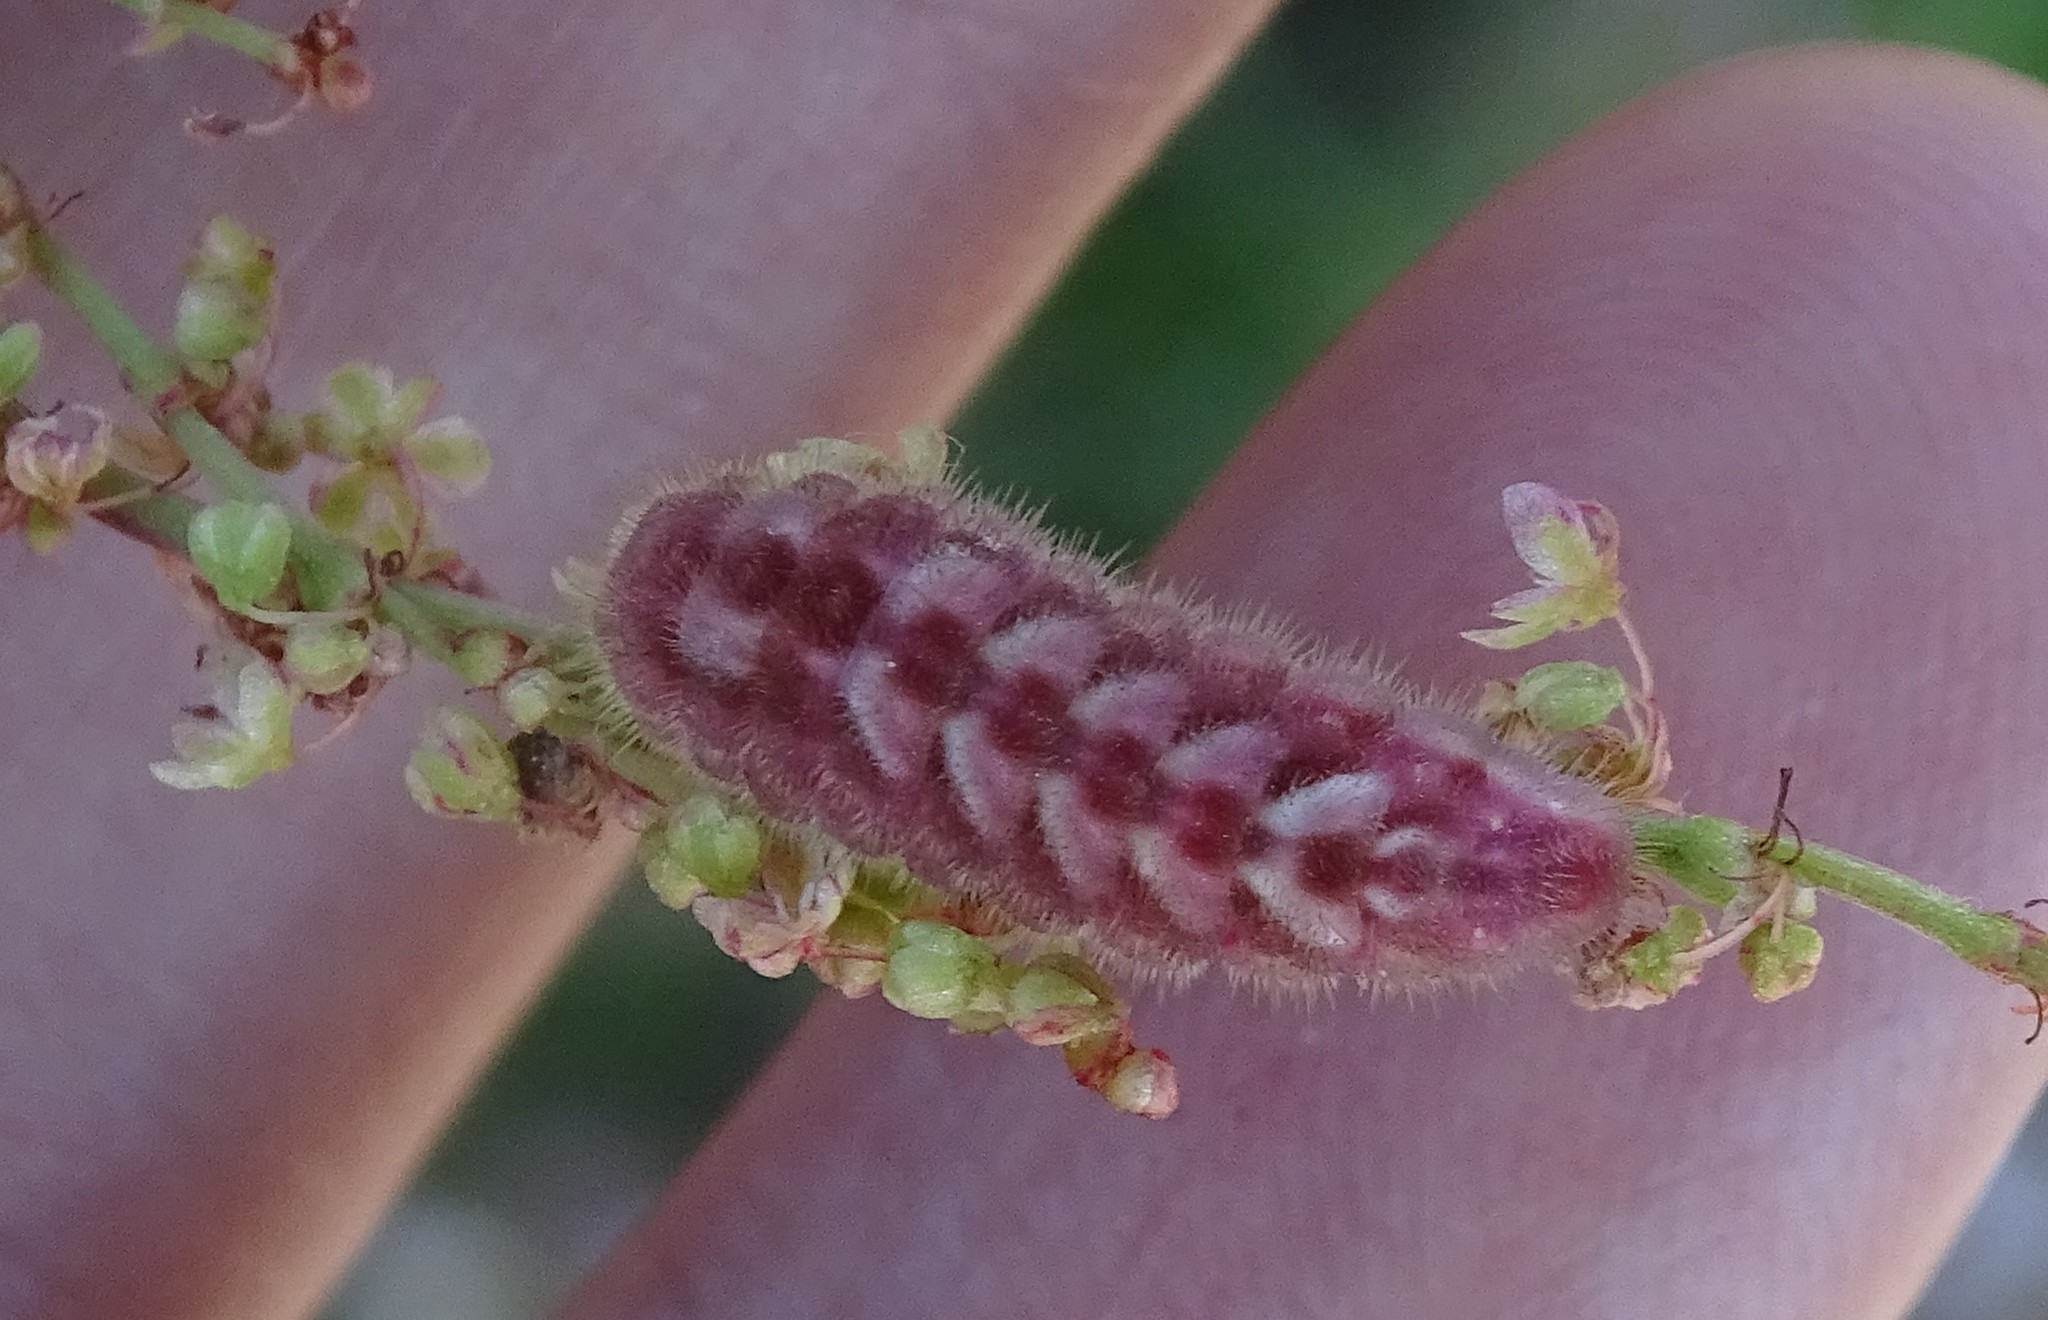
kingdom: Animalia
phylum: Arthropoda
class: Insecta
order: Lepidoptera
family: Lycaenidae
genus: Incisalia
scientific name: Incisalia henrici
